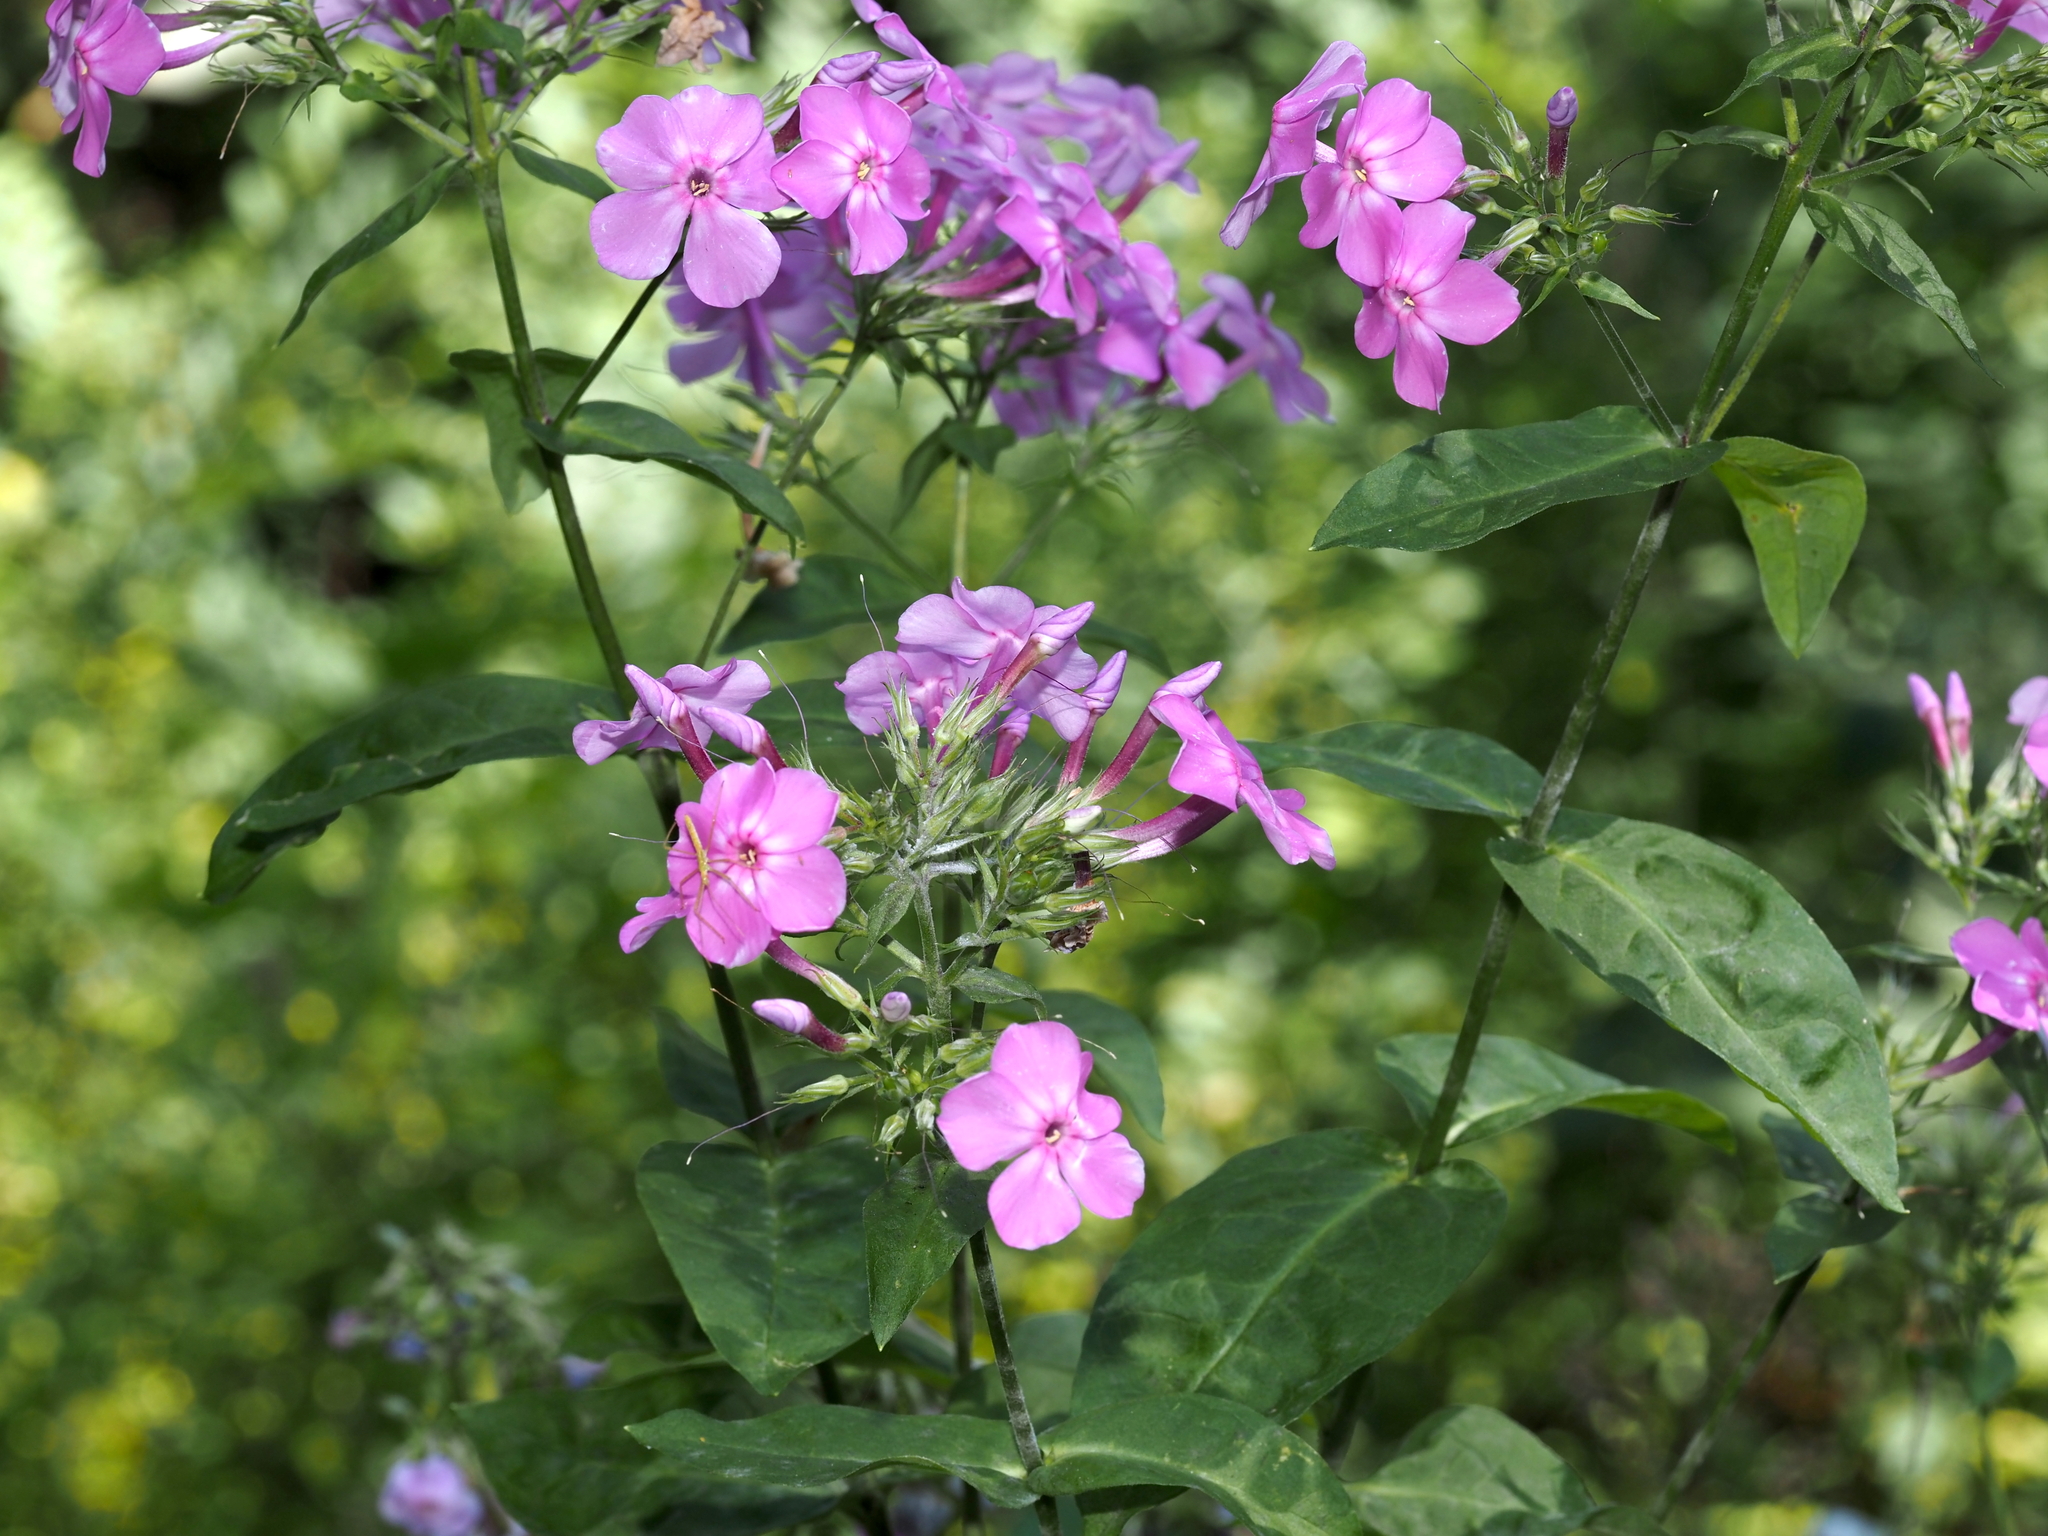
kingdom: Plantae
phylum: Tracheophyta
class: Magnoliopsida
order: Ericales
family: Polemoniaceae
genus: Phlox
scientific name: Phlox paniculata
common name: Fall phlox
